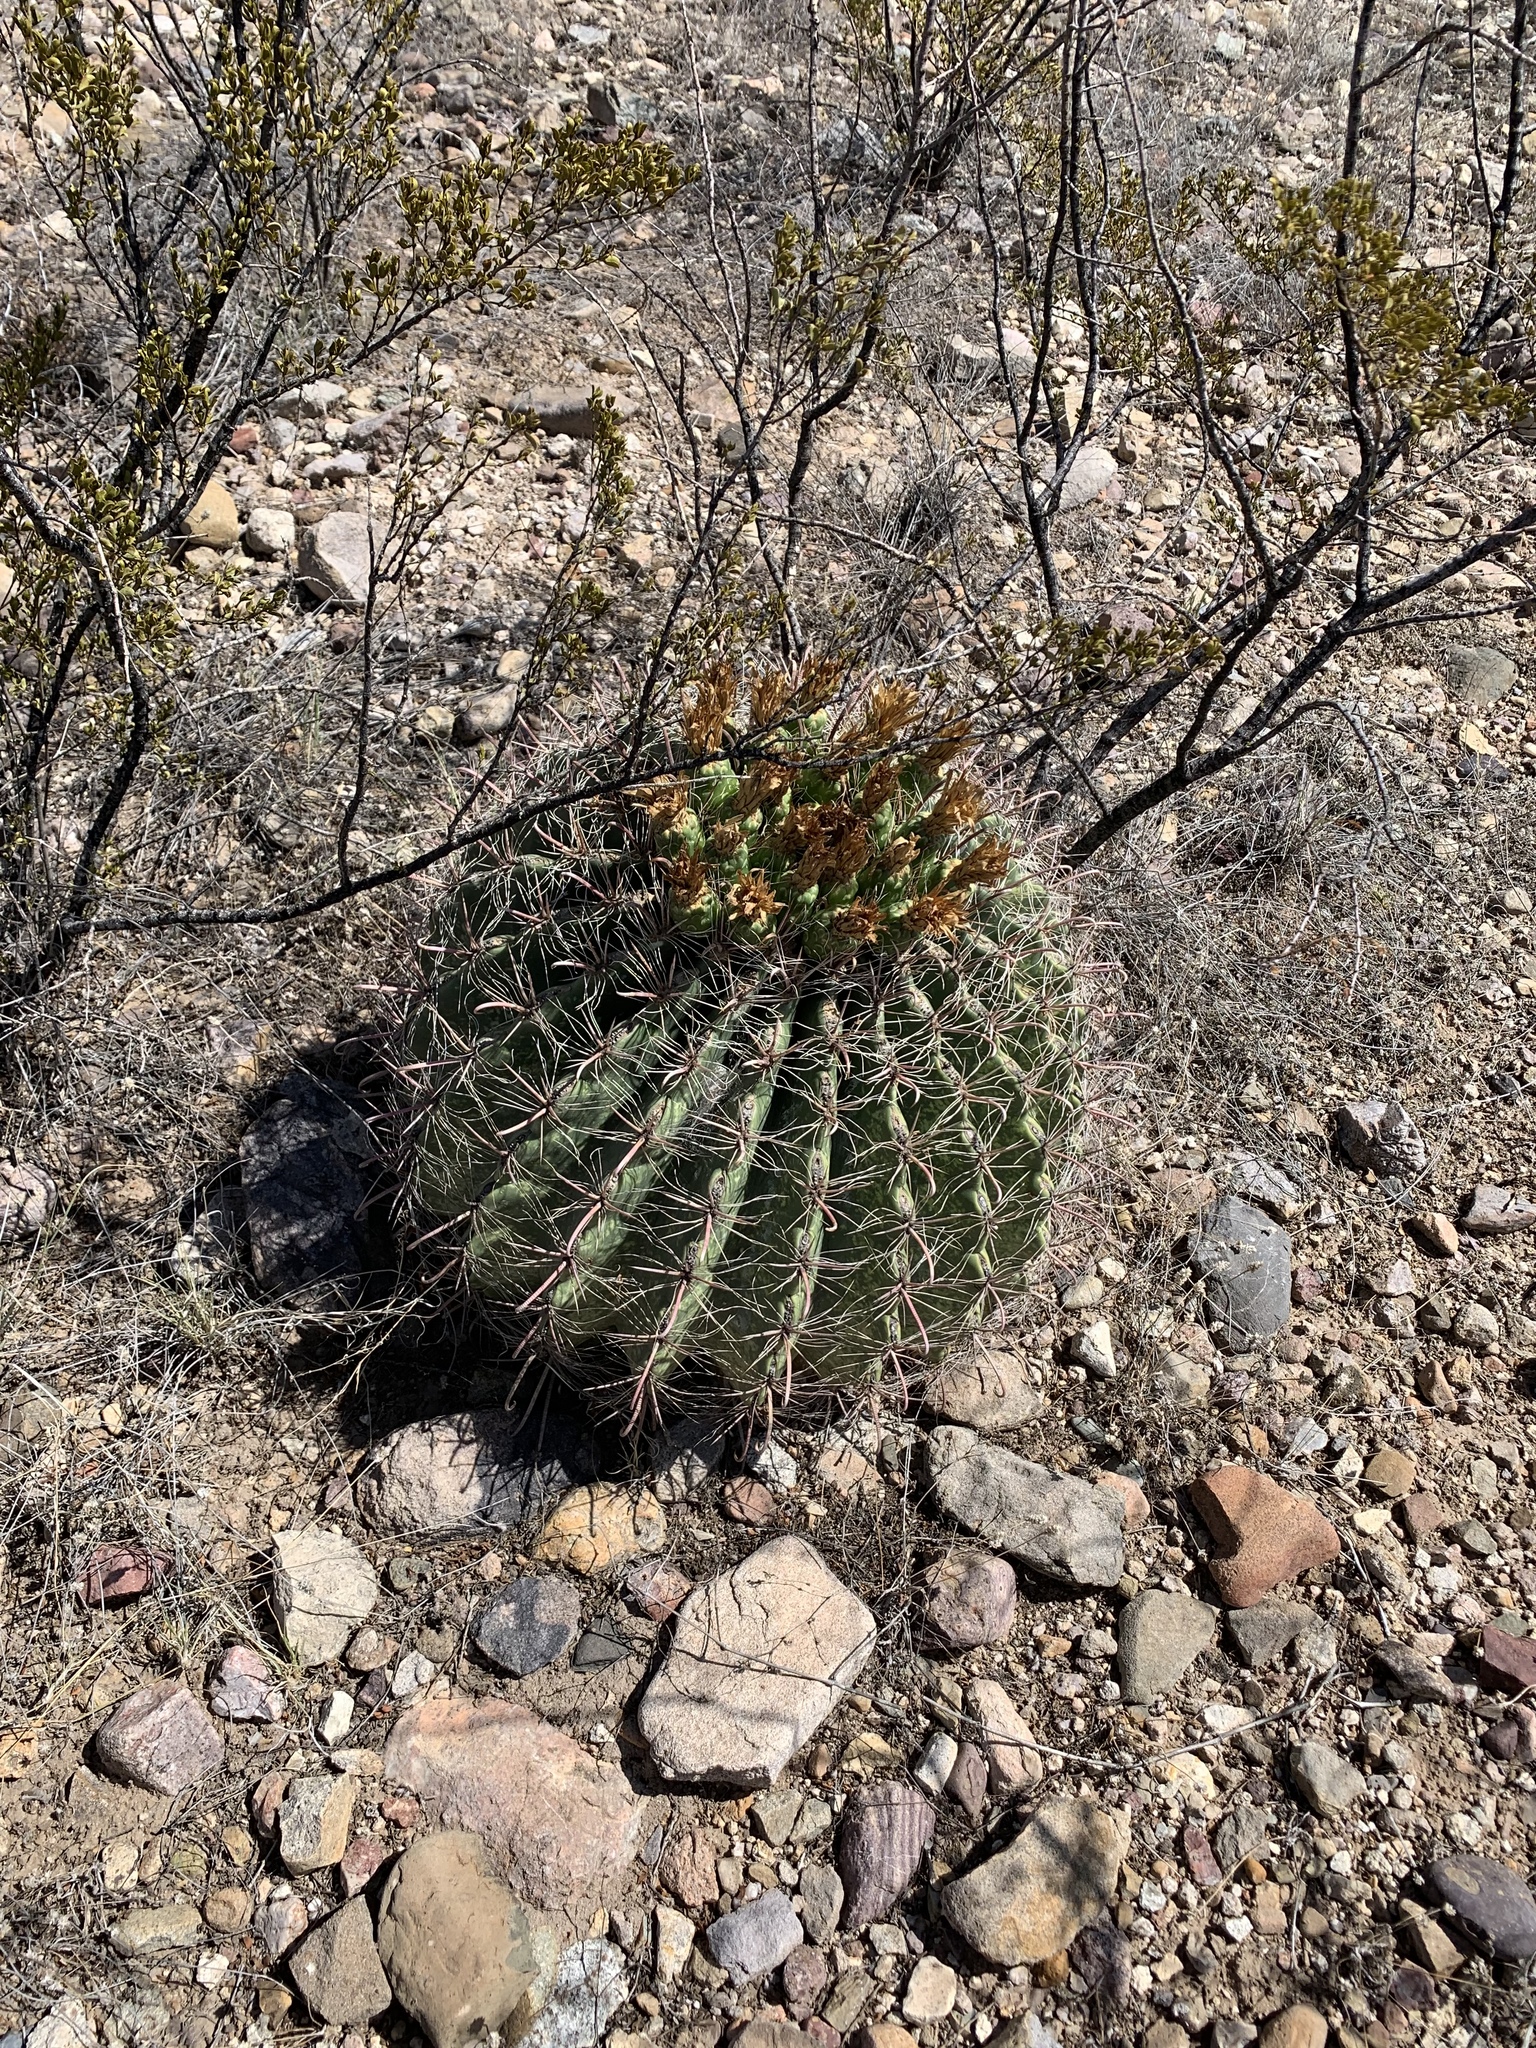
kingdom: Plantae
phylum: Tracheophyta
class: Magnoliopsida
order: Caryophyllales
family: Cactaceae
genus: Ferocactus
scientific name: Ferocactus wislizeni
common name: Candy barrel cactus
